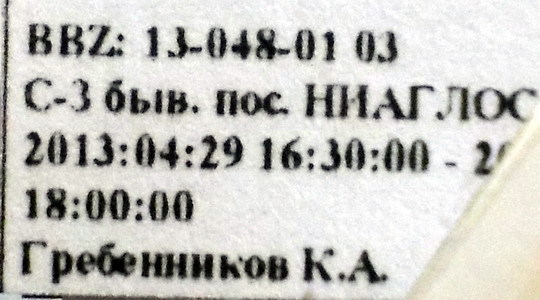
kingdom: Animalia
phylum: Arthropoda
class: Insecta
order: Hymenoptera
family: Formicidae
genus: Cataglyphis
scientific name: Cataglyphis aenescens
